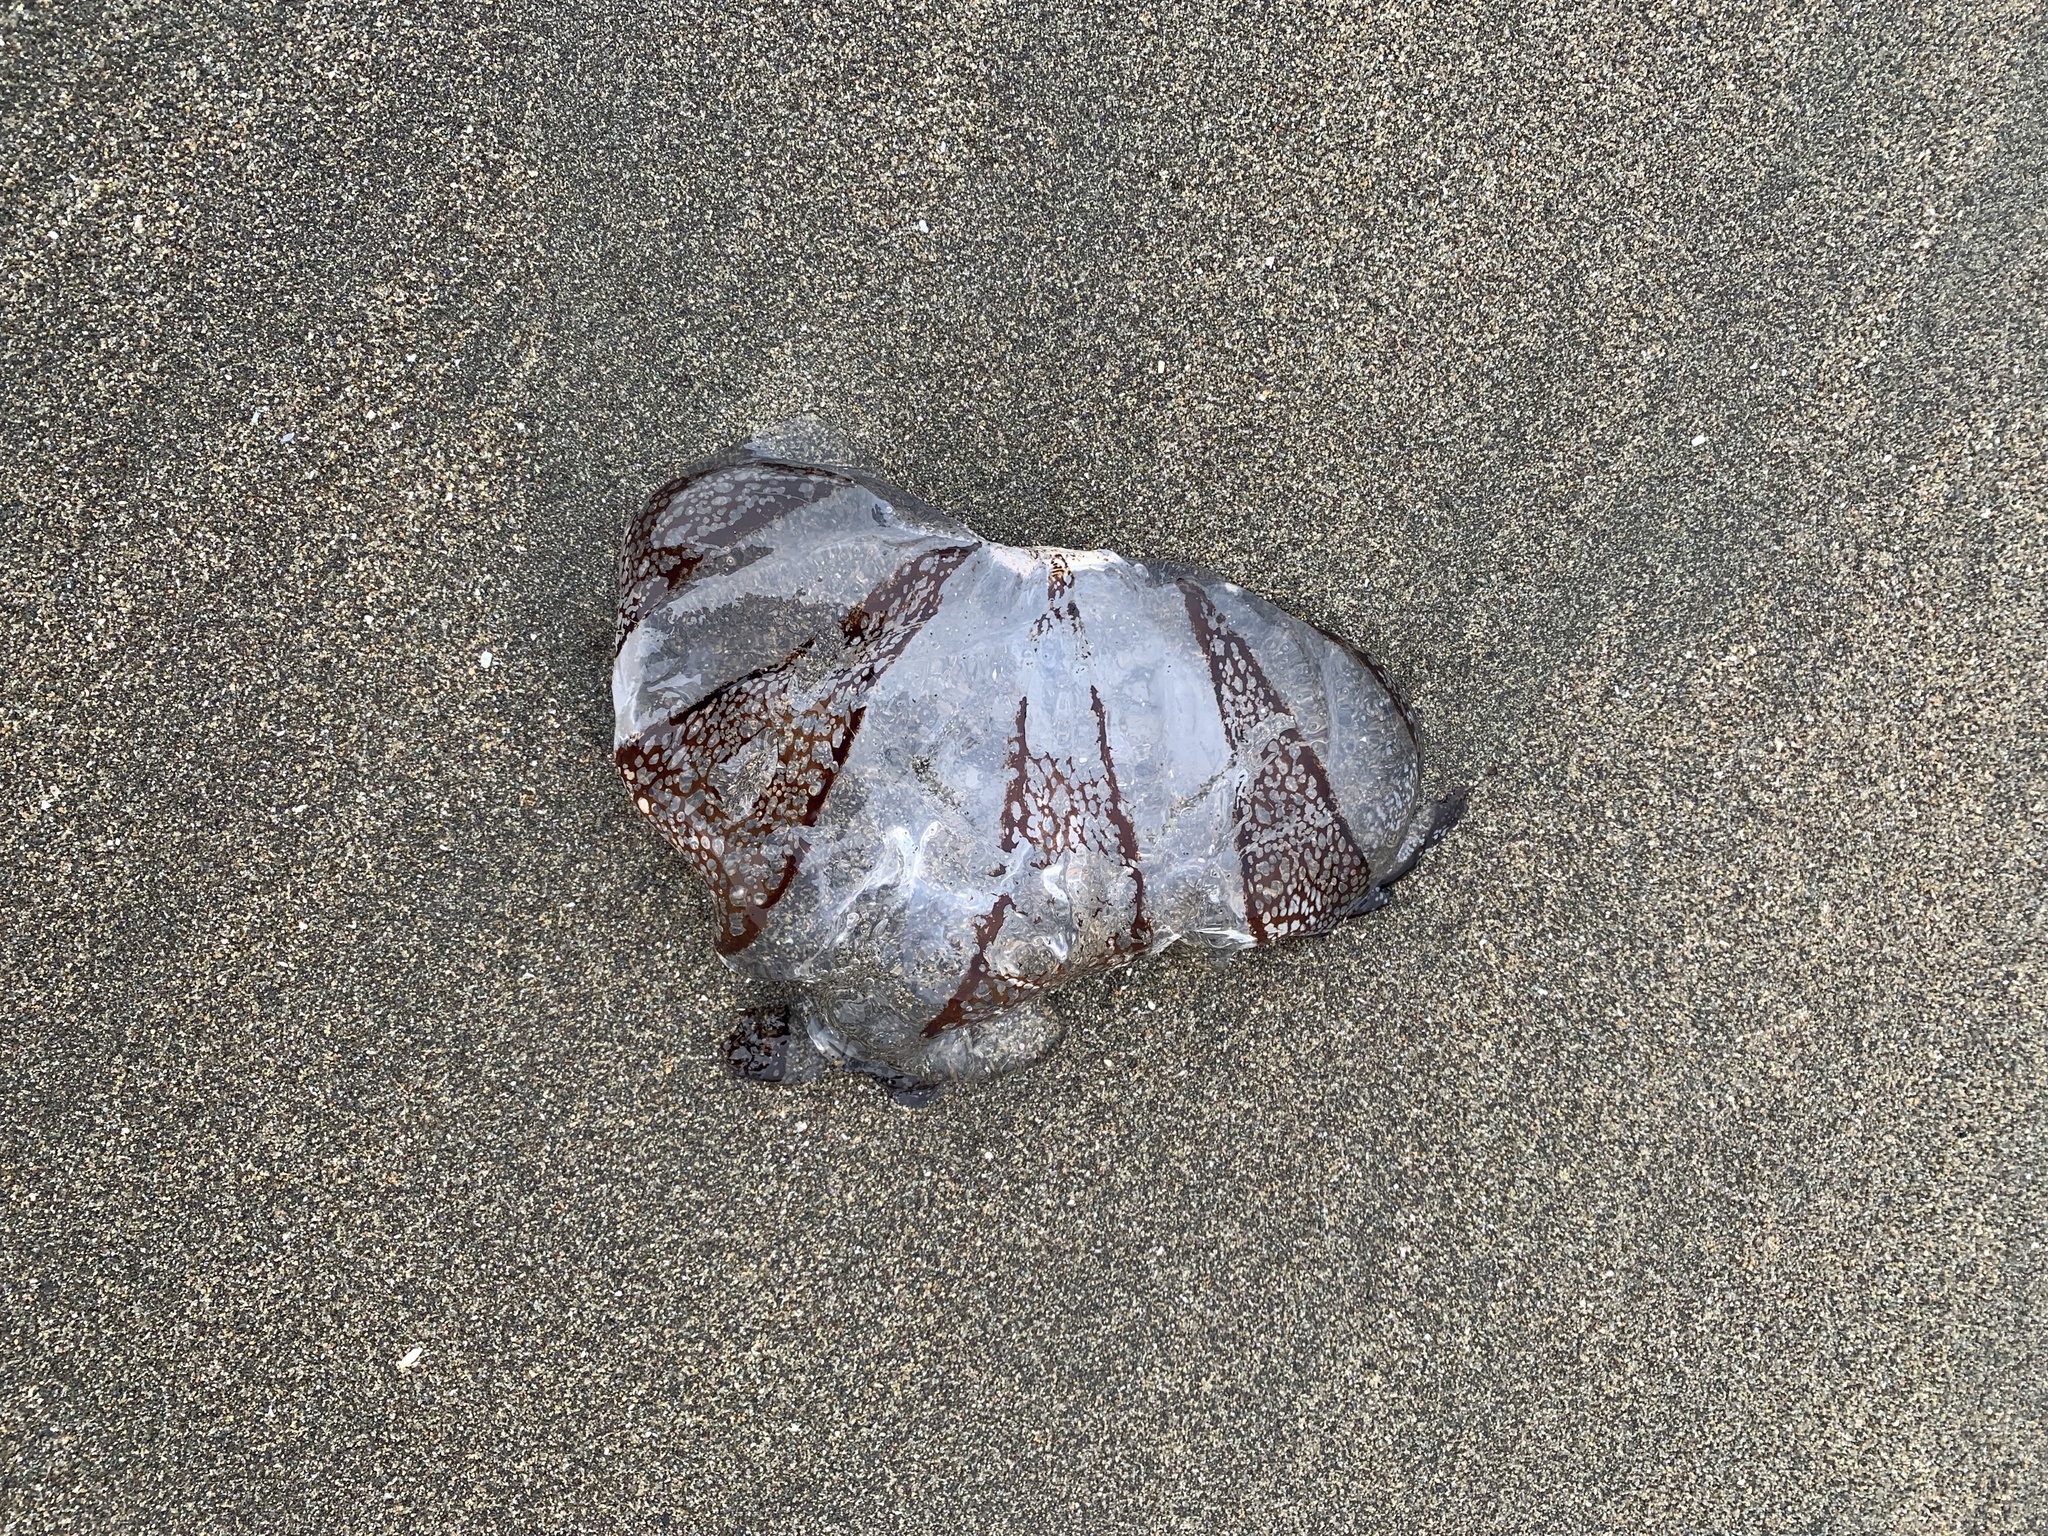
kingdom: Animalia
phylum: Cnidaria
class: Scyphozoa
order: Semaeostomeae
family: Pelagiidae
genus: Chrysaora
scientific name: Chrysaora plocamia
